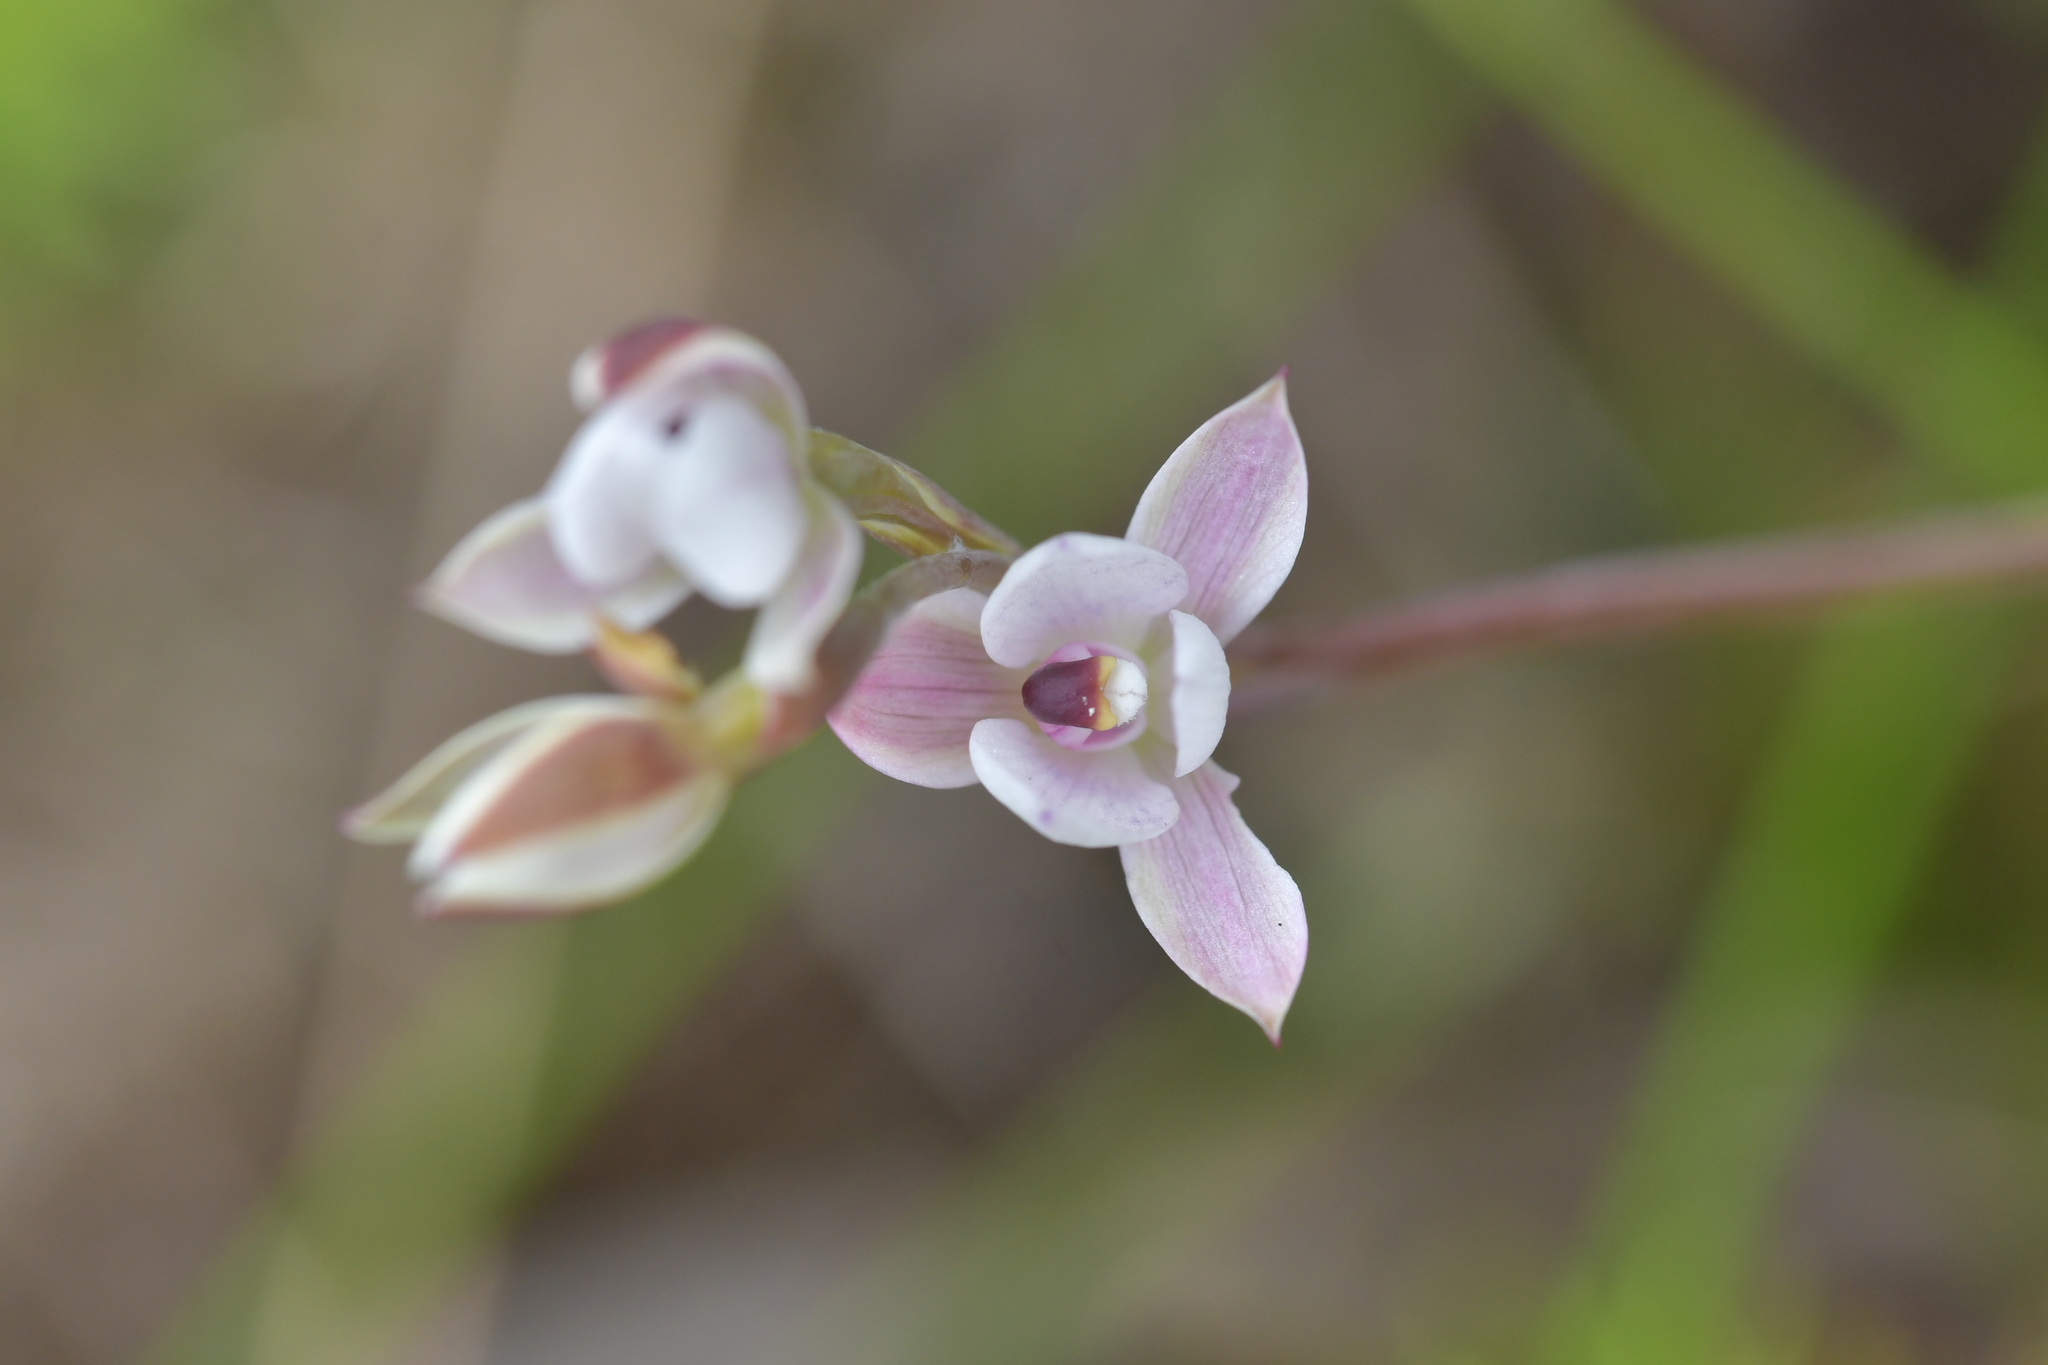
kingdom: Plantae
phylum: Tracheophyta
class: Liliopsida
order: Asparagales
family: Orchidaceae
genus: Thelymitra
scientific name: Thelymitra longifolia
